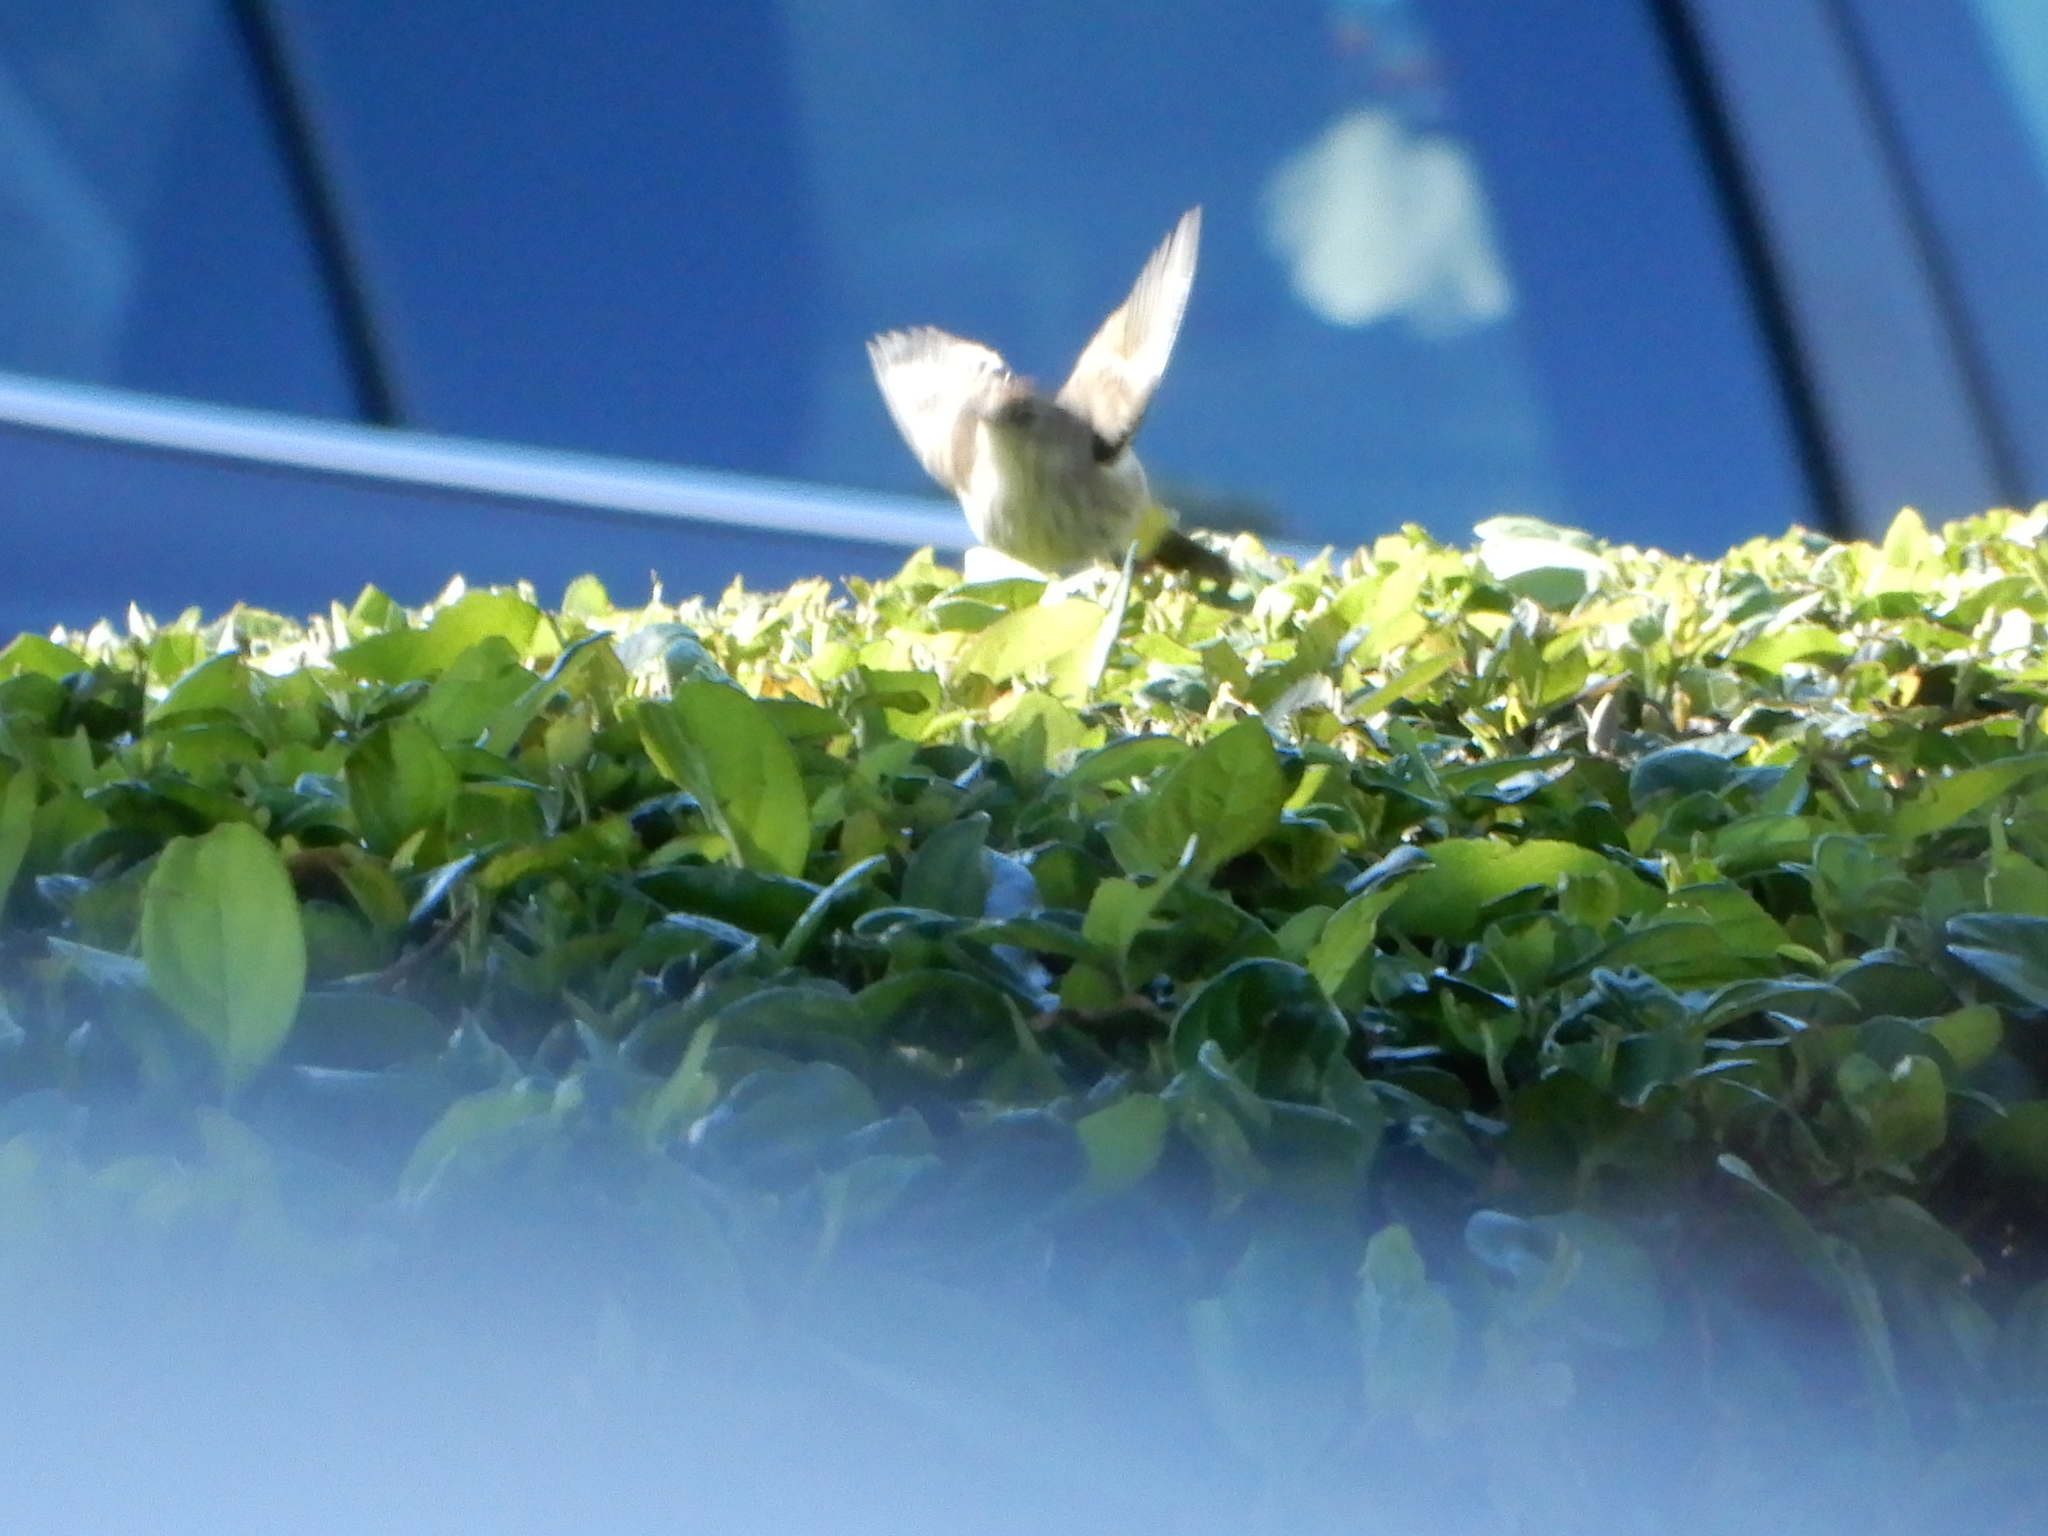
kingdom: Animalia
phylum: Chordata
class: Aves
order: Passeriformes
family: Parulidae
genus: Setophaga
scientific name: Setophaga palmarum
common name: Palm warbler
